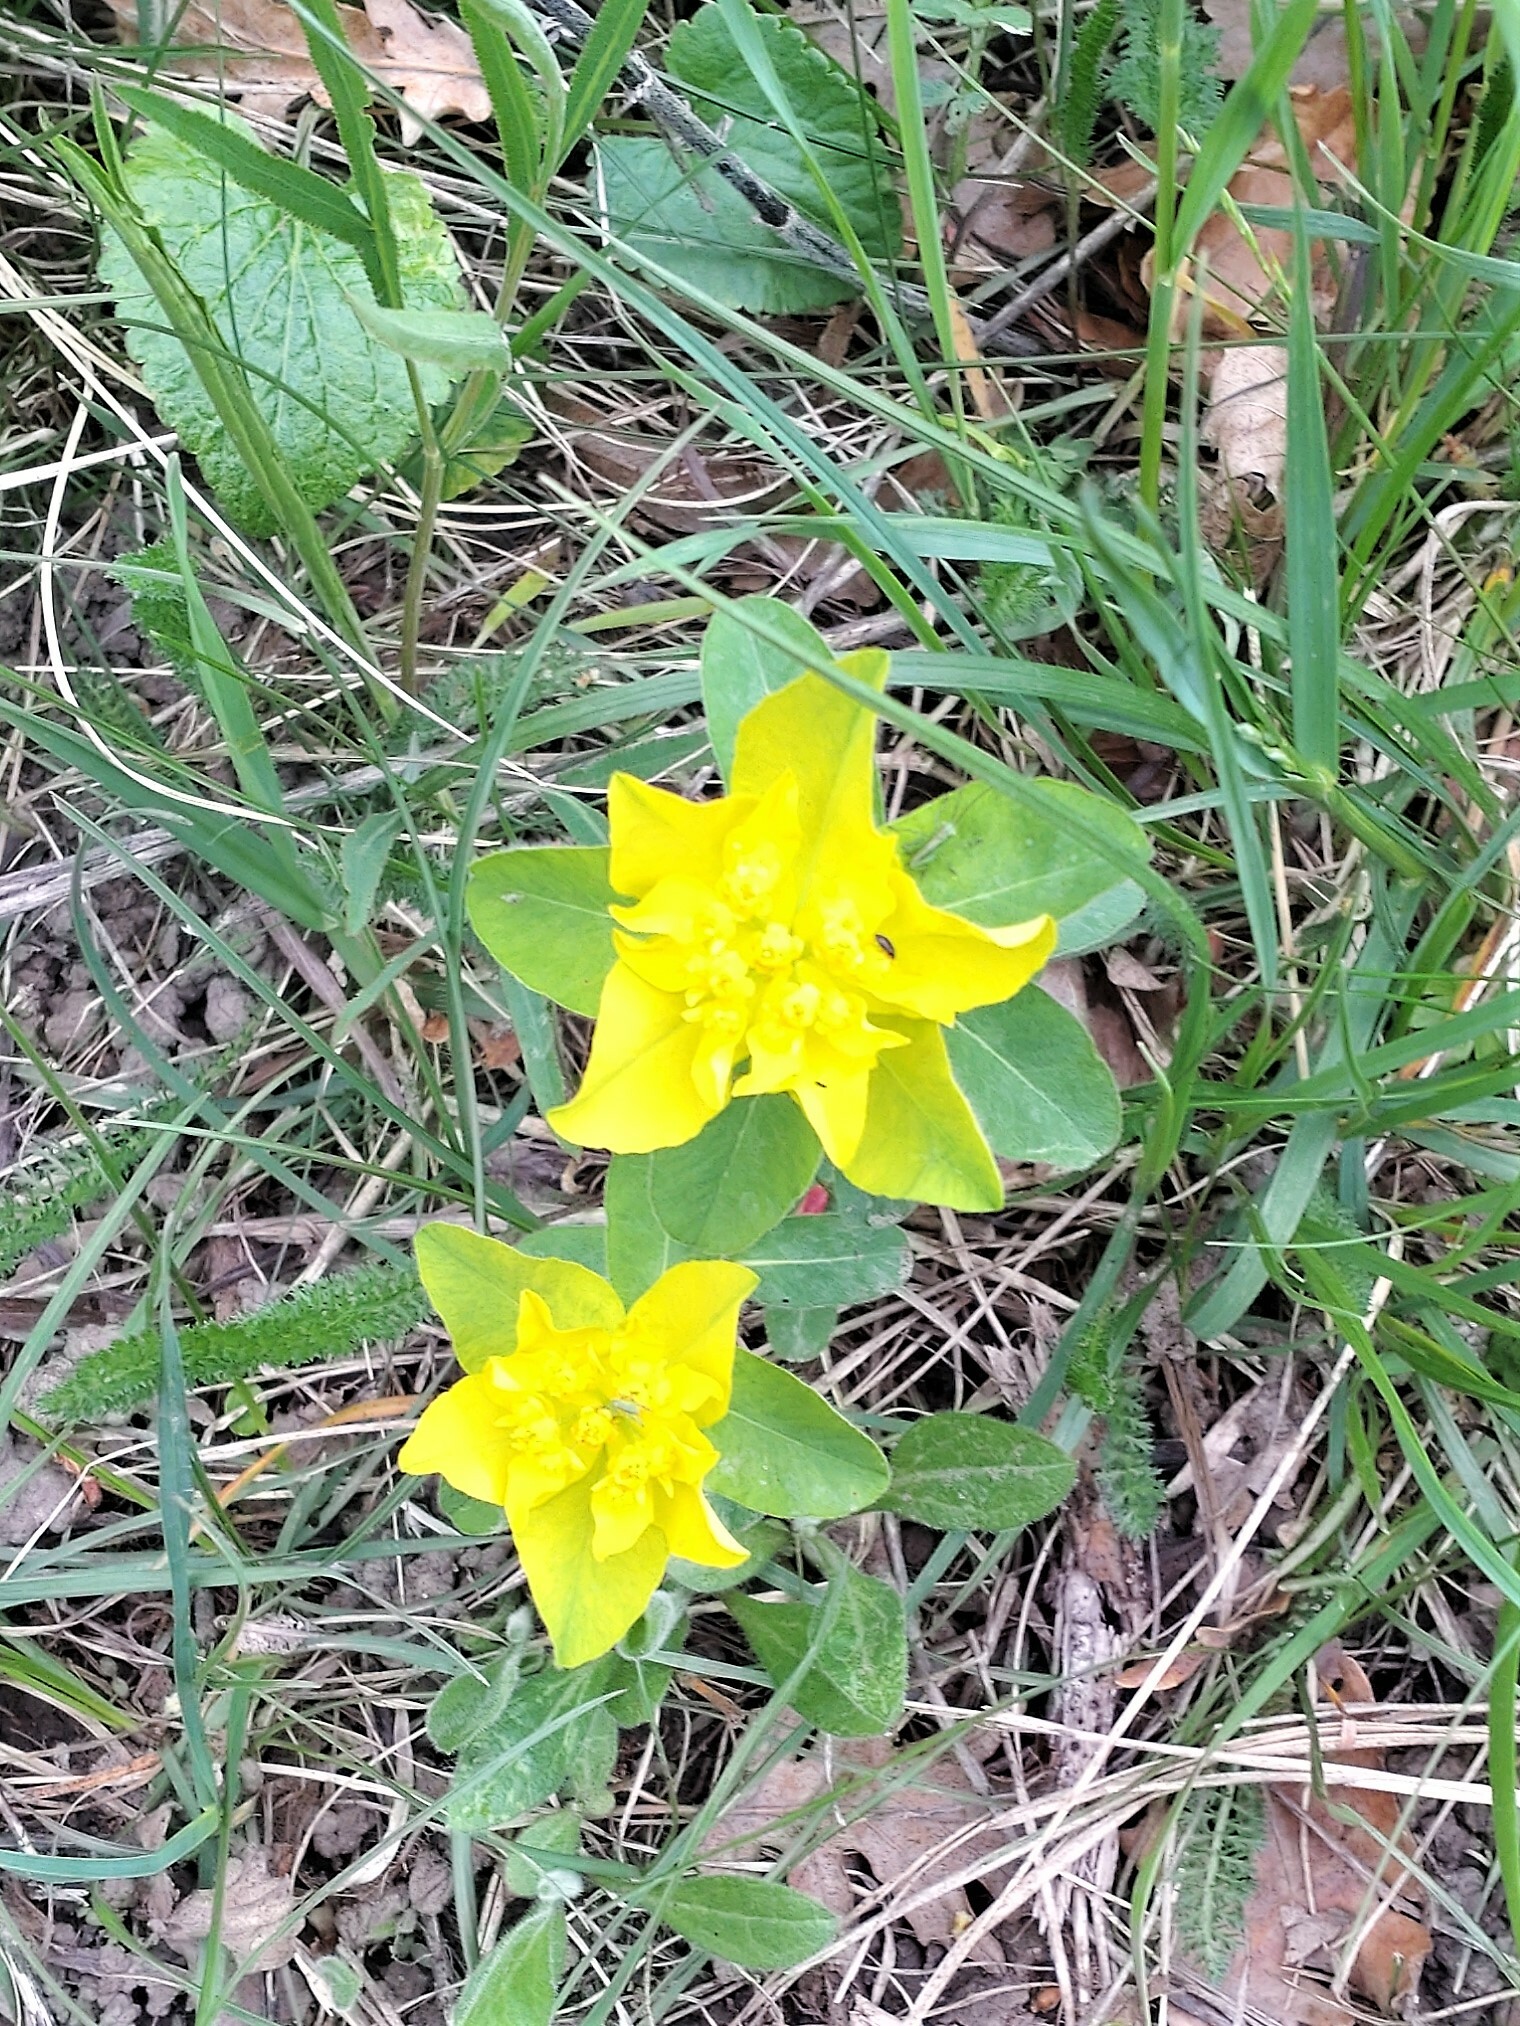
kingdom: Plantae
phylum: Tracheophyta
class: Magnoliopsida
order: Malpighiales
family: Euphorbiaceae
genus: Euphorbia
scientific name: Euphorbia epithymoides
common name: Cushion spurge
